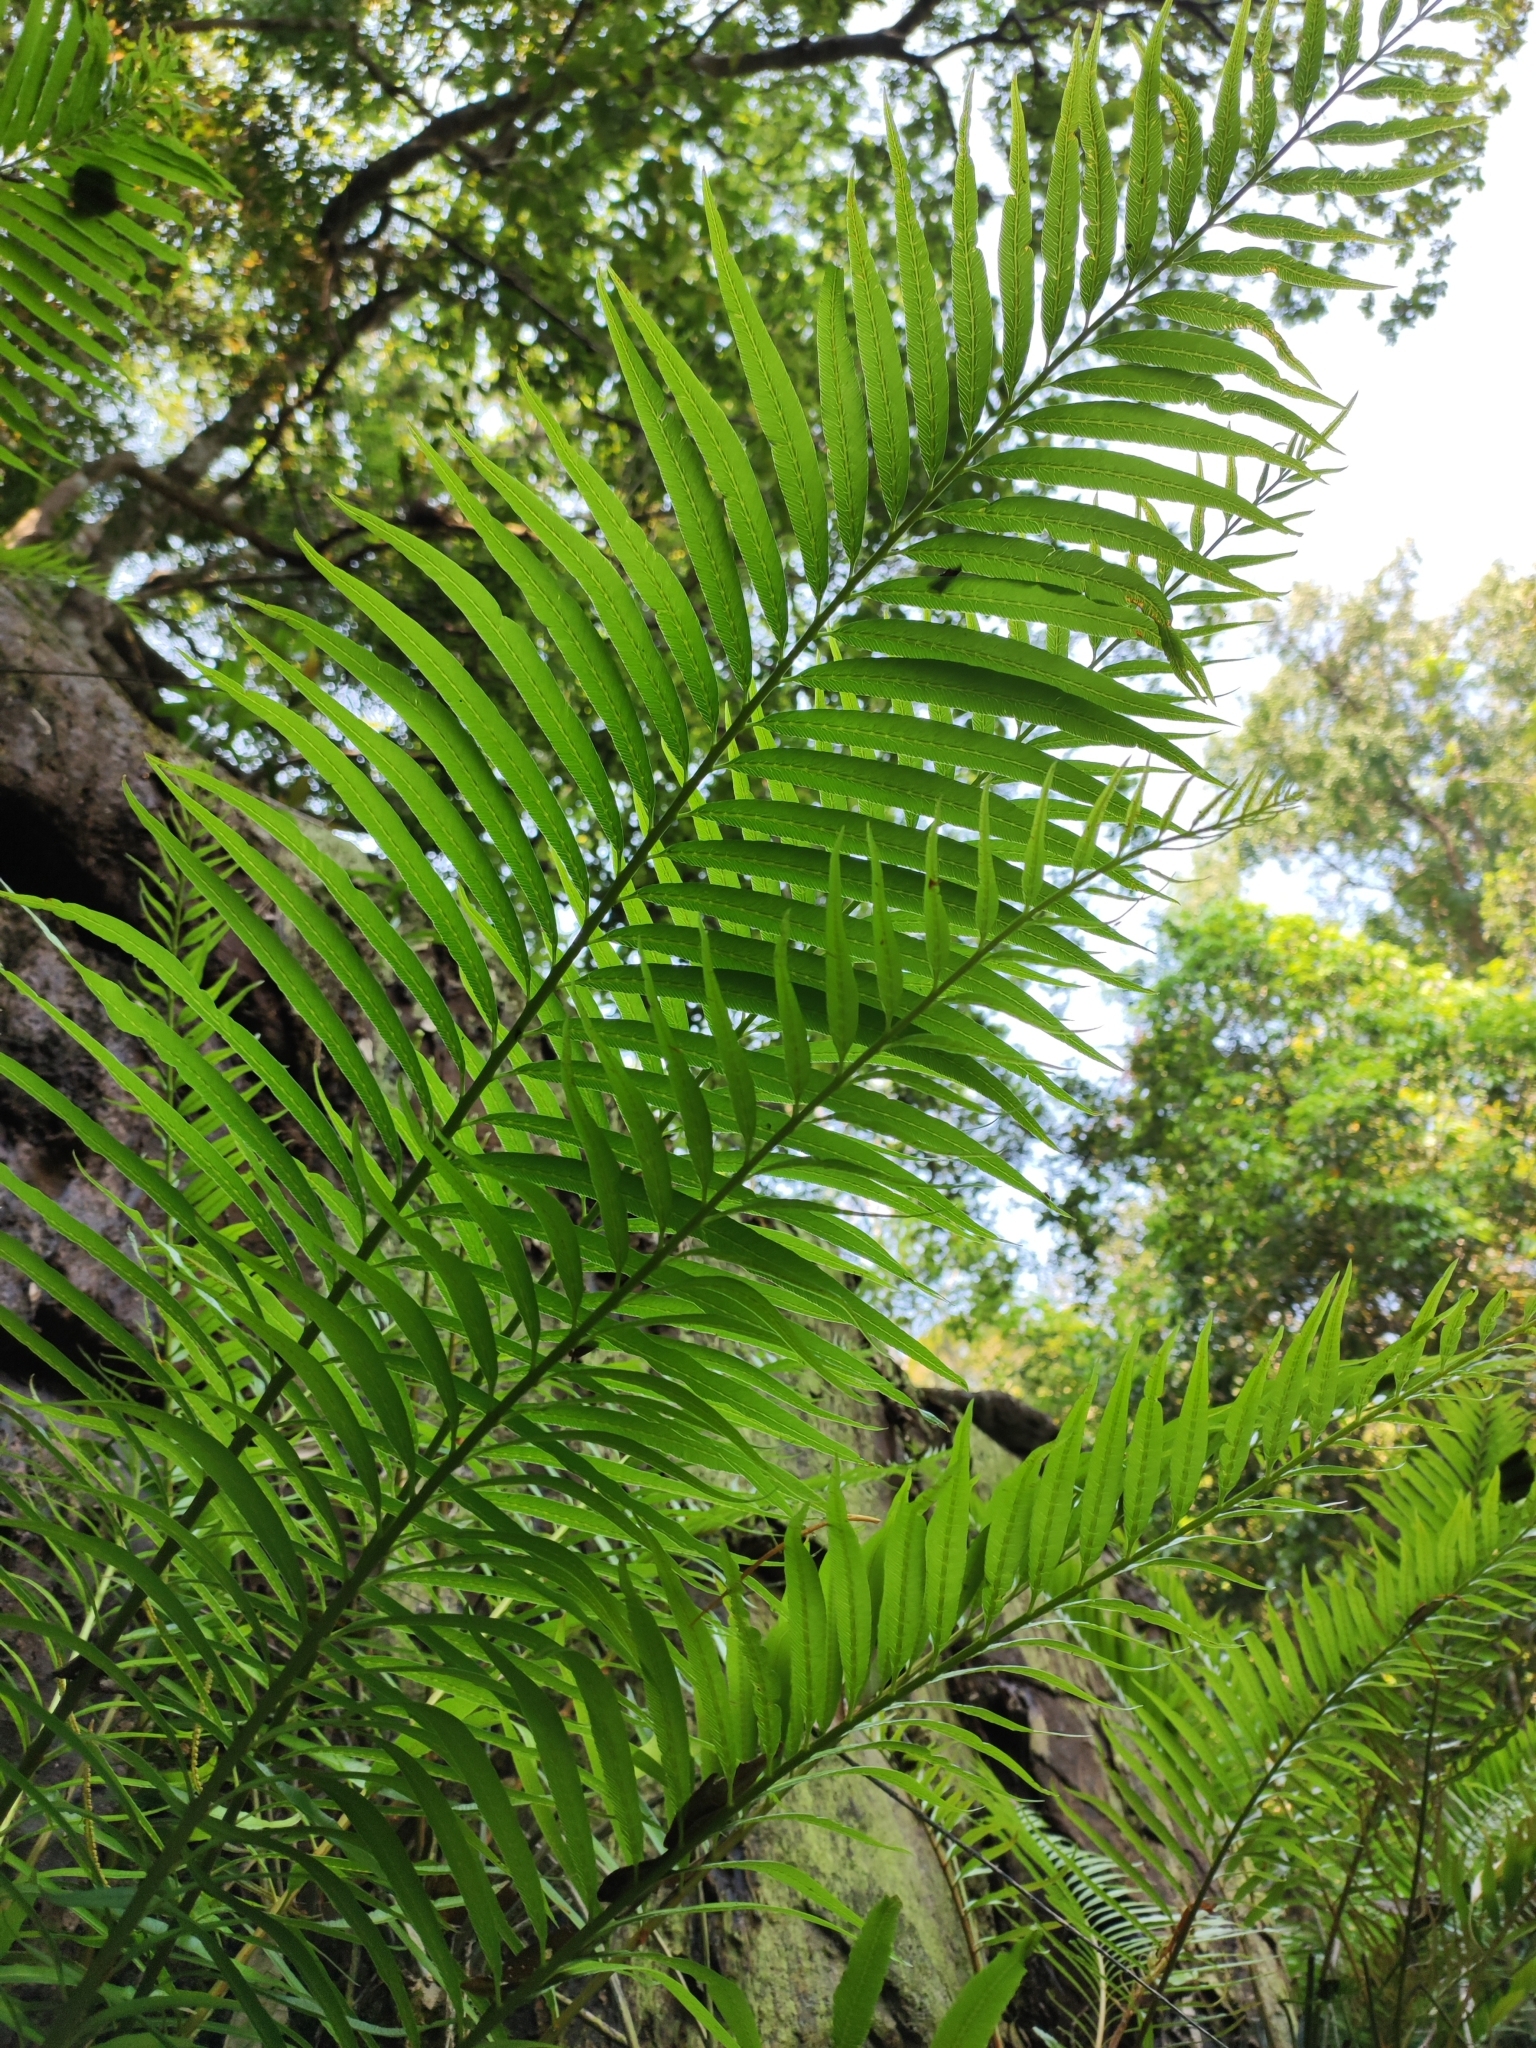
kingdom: Plantae
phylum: Tracheophyta
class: Polypodiopsida
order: Osmundales
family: Osmundaceae
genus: Plenasium
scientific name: Plenasium vachellii
